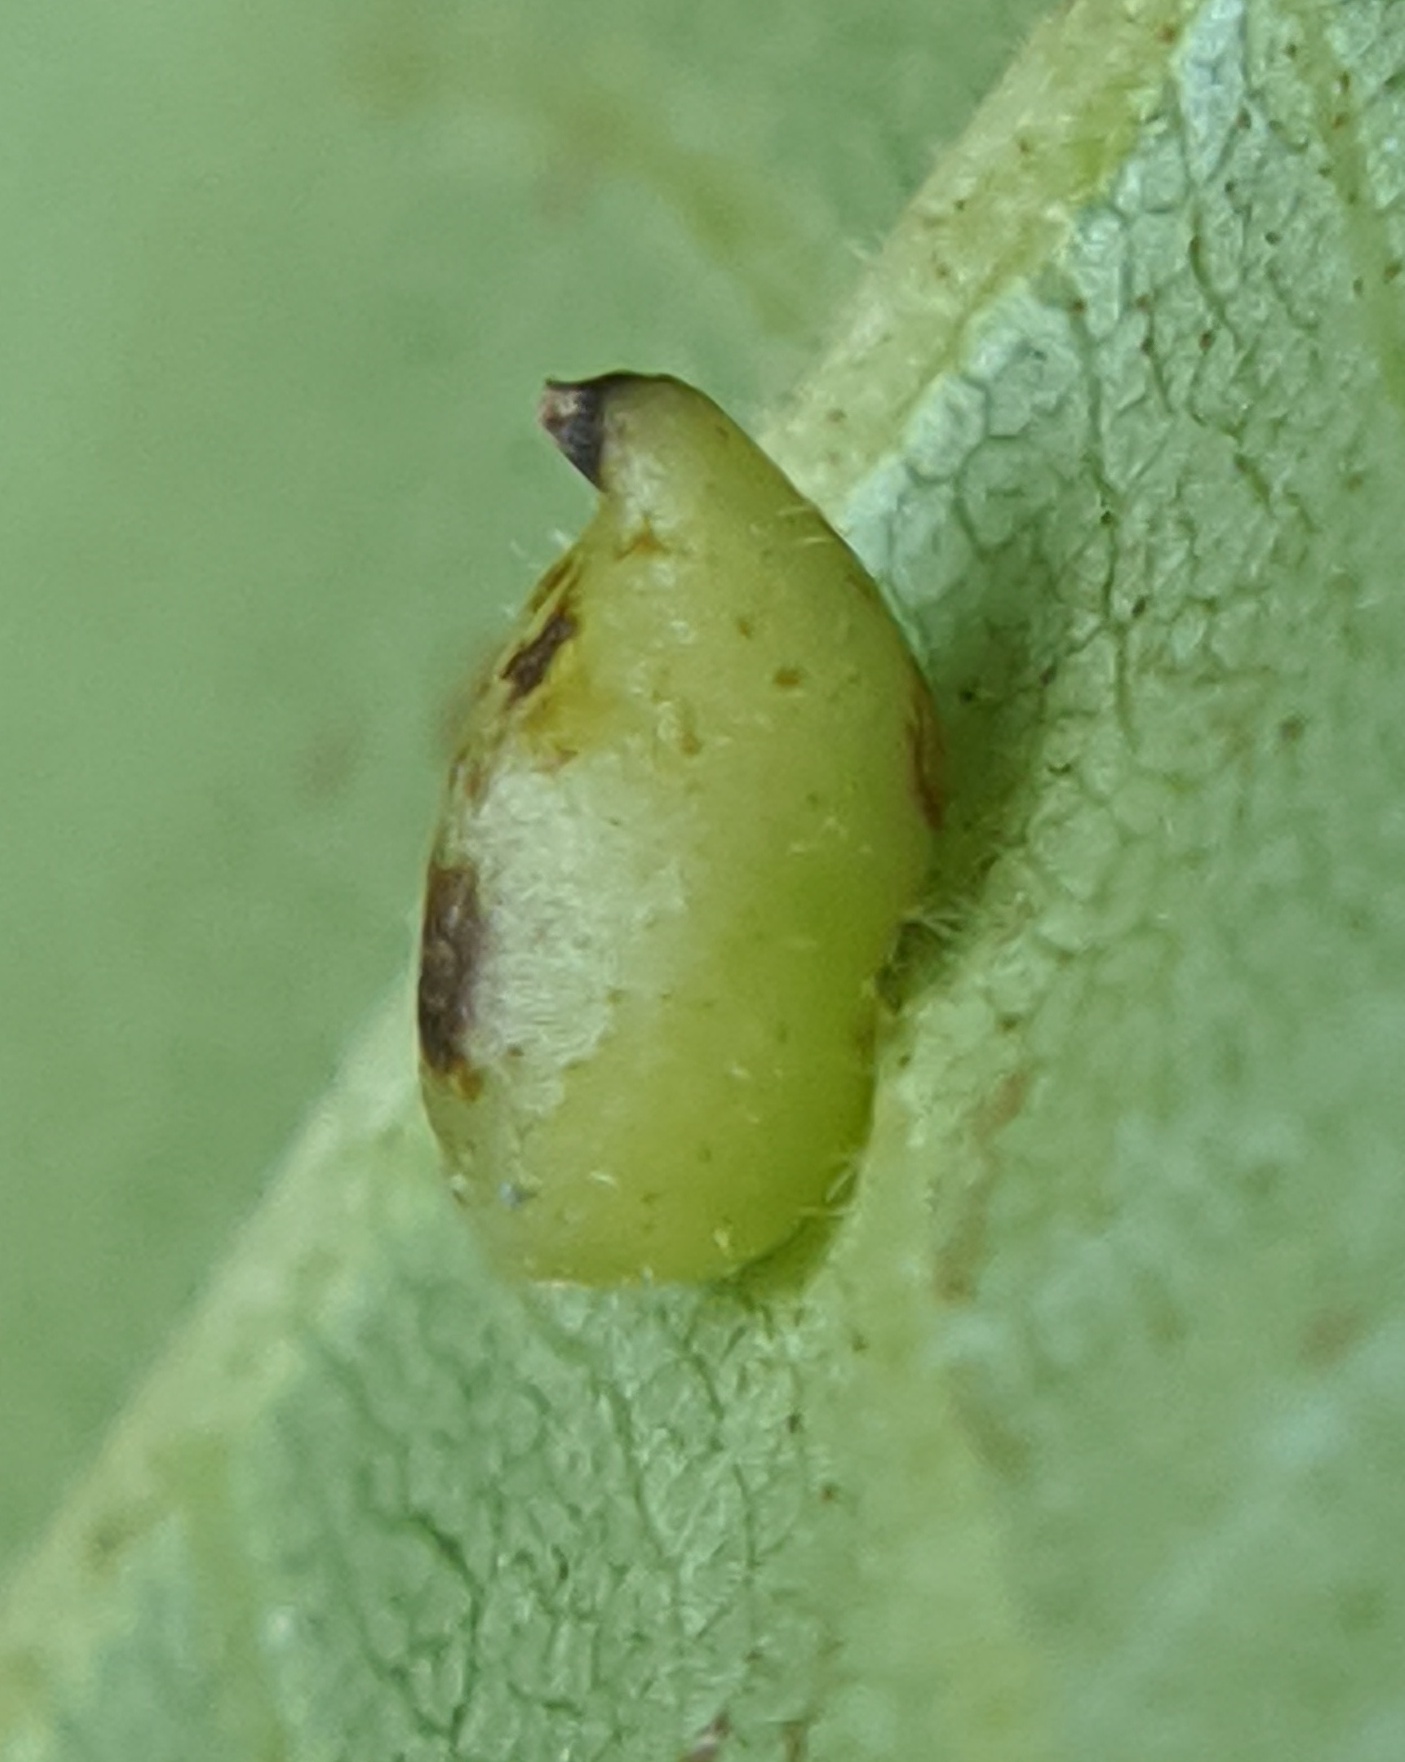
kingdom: Animalia
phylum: Arthropoda
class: Insecta
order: Diptera
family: Cecidomyiidae
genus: Caryomyia
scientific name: Caryomyia eumaris
